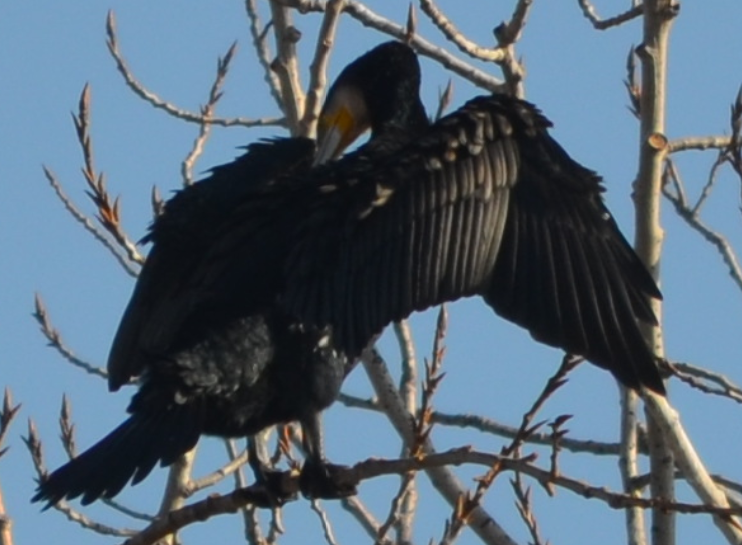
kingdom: Animalia
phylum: Chordata
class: Aves
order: Suliformes
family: Phalacrocoracidae
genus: Phalacrocorax
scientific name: Phalacrocorax carbo
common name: Great cormorant
